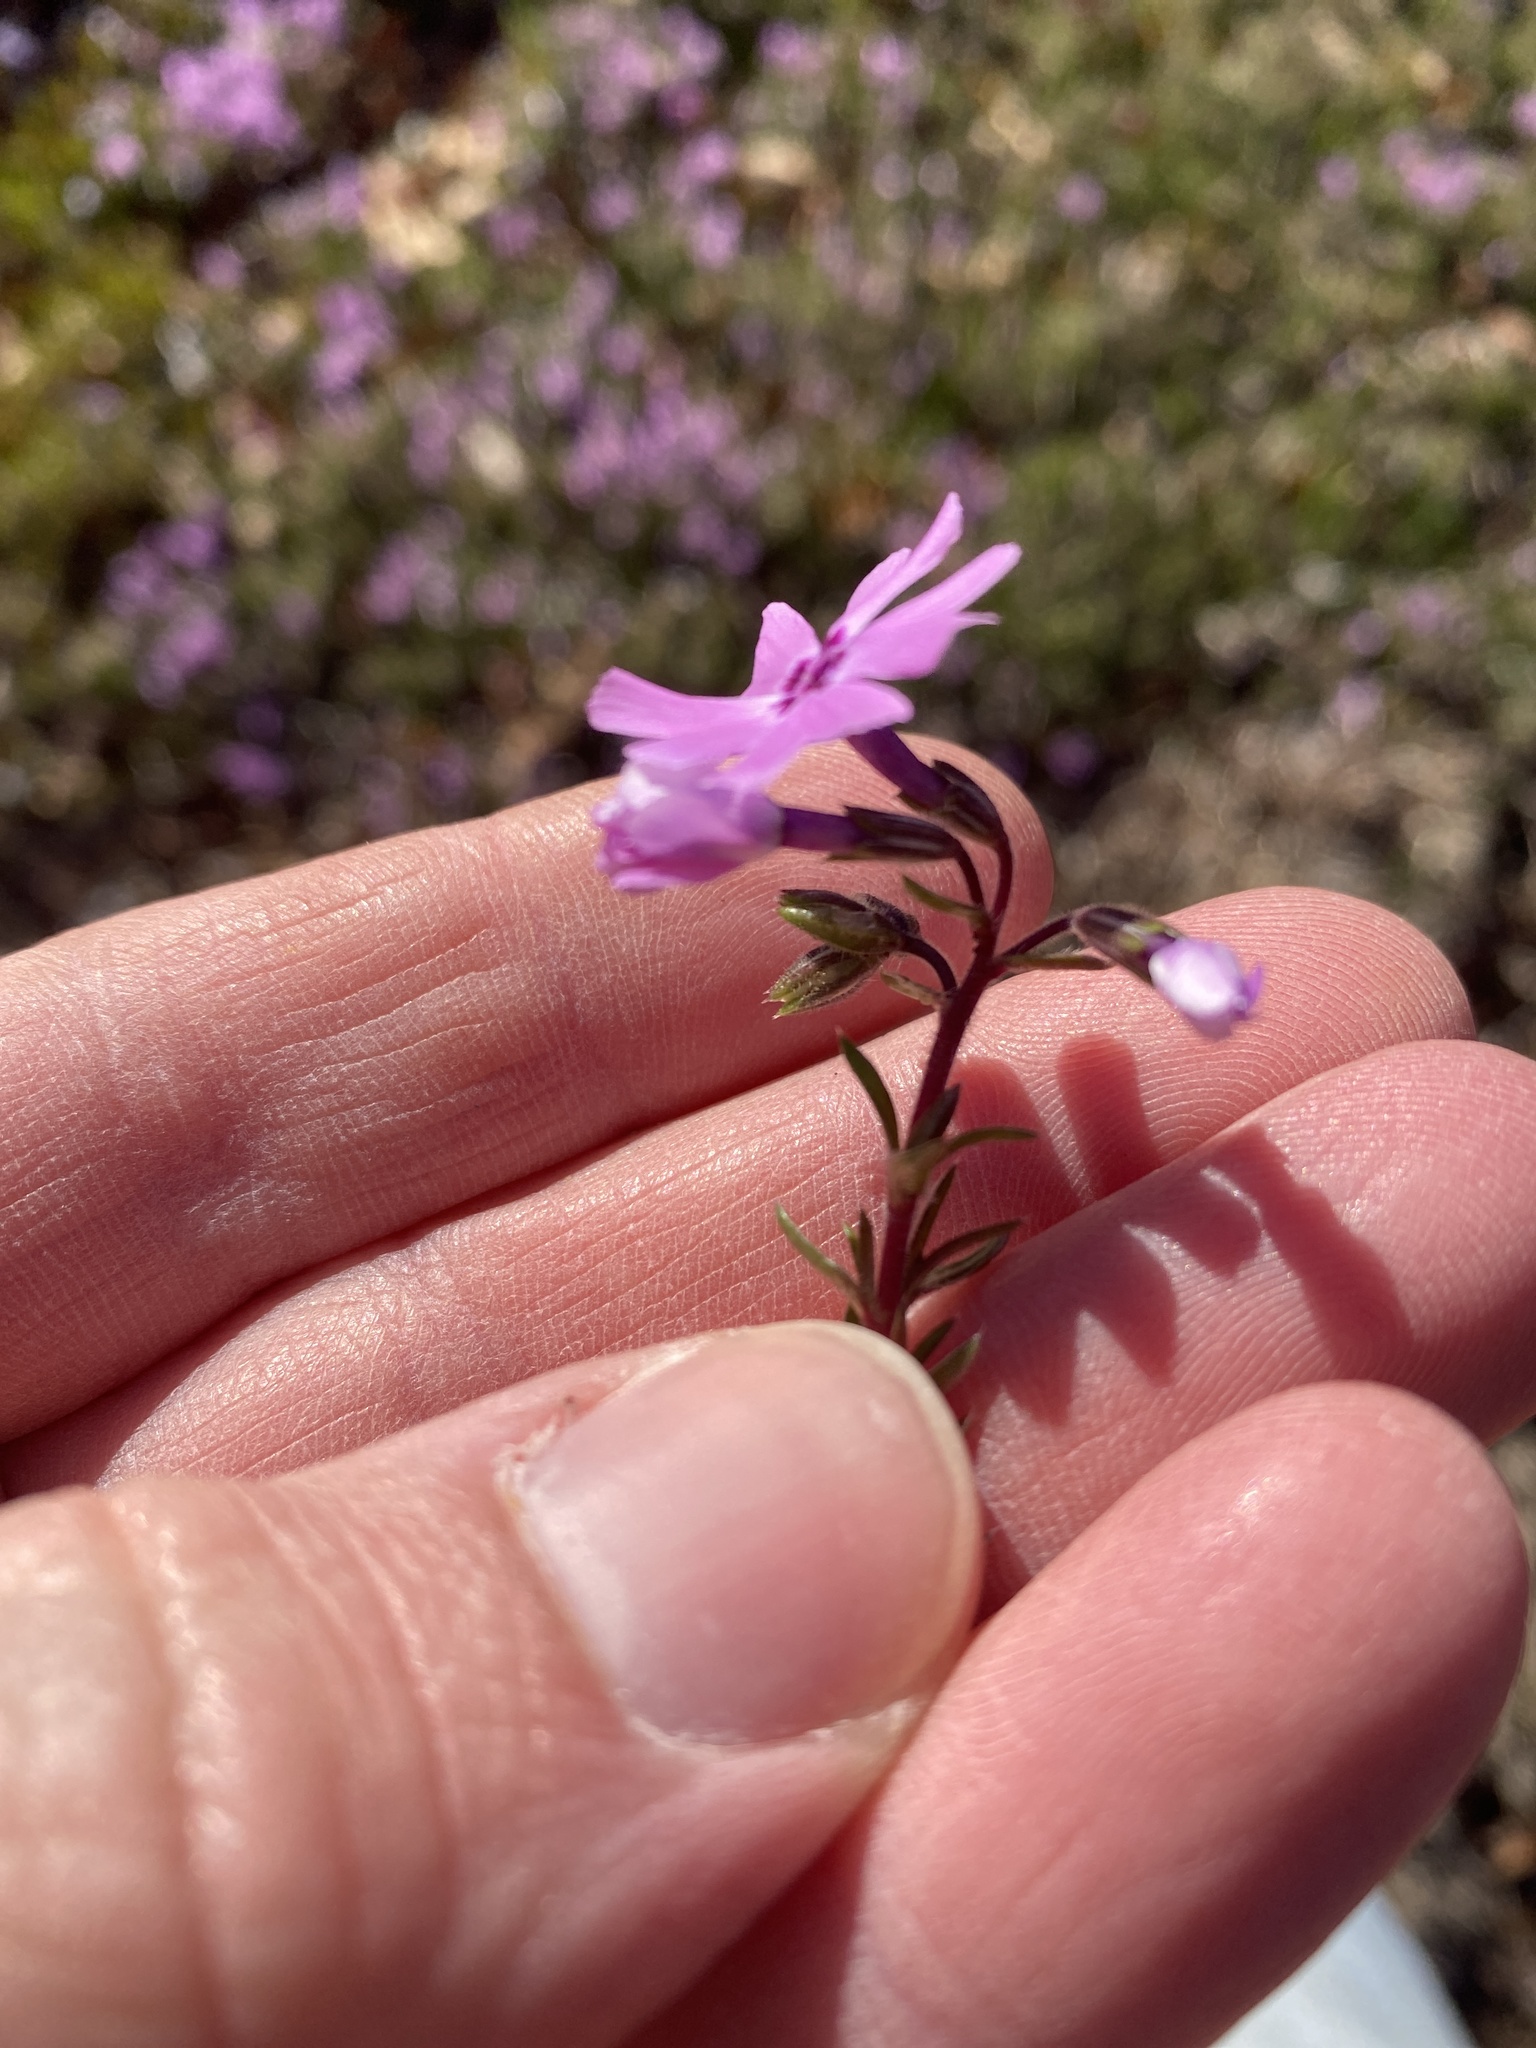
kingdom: Plantae
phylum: Tracheophyta
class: Magnoliopsida
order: Ericales
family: Polemoniaceae
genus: Phlox
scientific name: Phlox subulata
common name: Moss phlox
